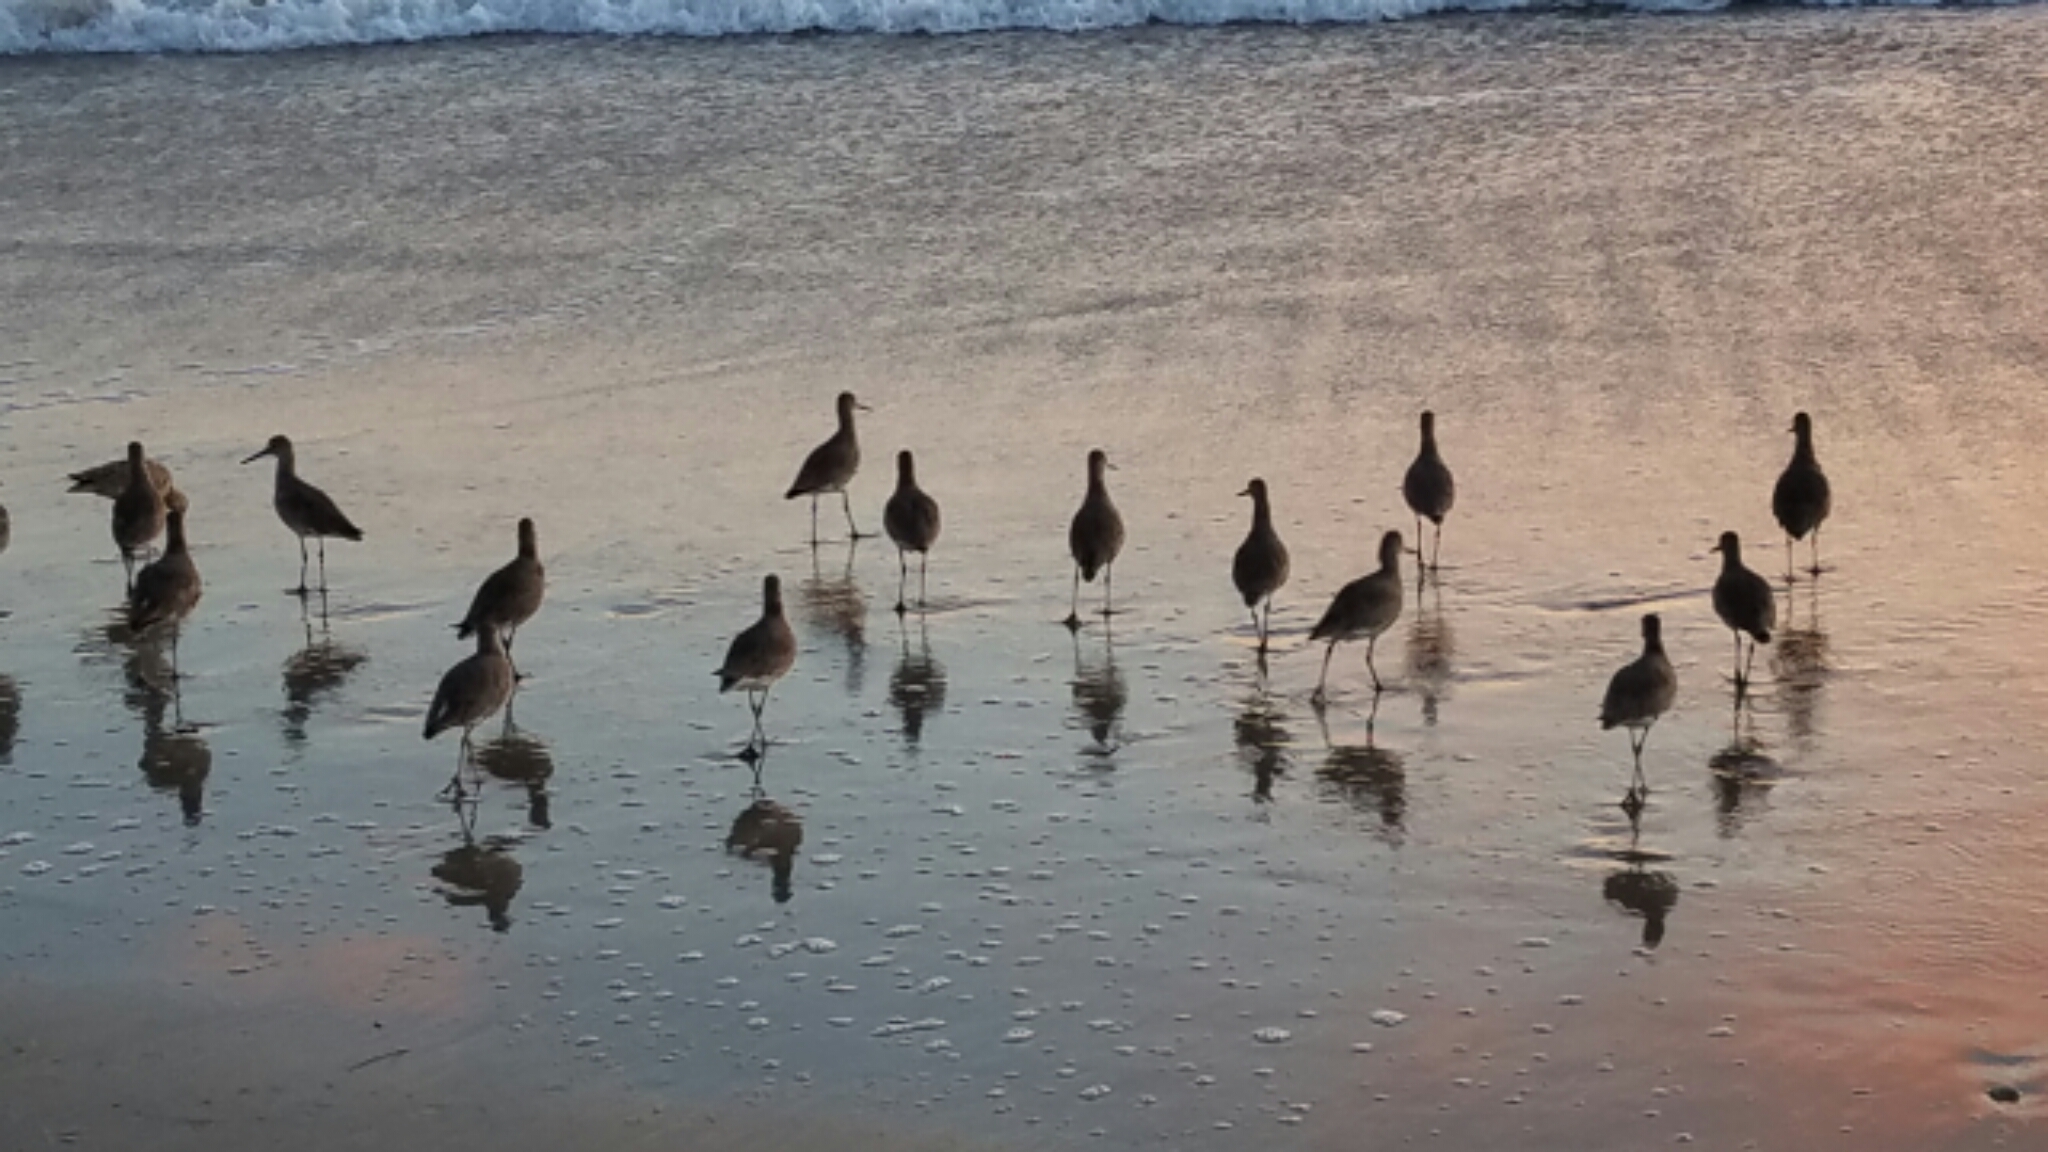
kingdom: Animalia
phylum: Chordata
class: Aves
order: Charadriiformes
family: Scolopacidae
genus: Tringa
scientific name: Tringa semipalmata
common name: Willet
